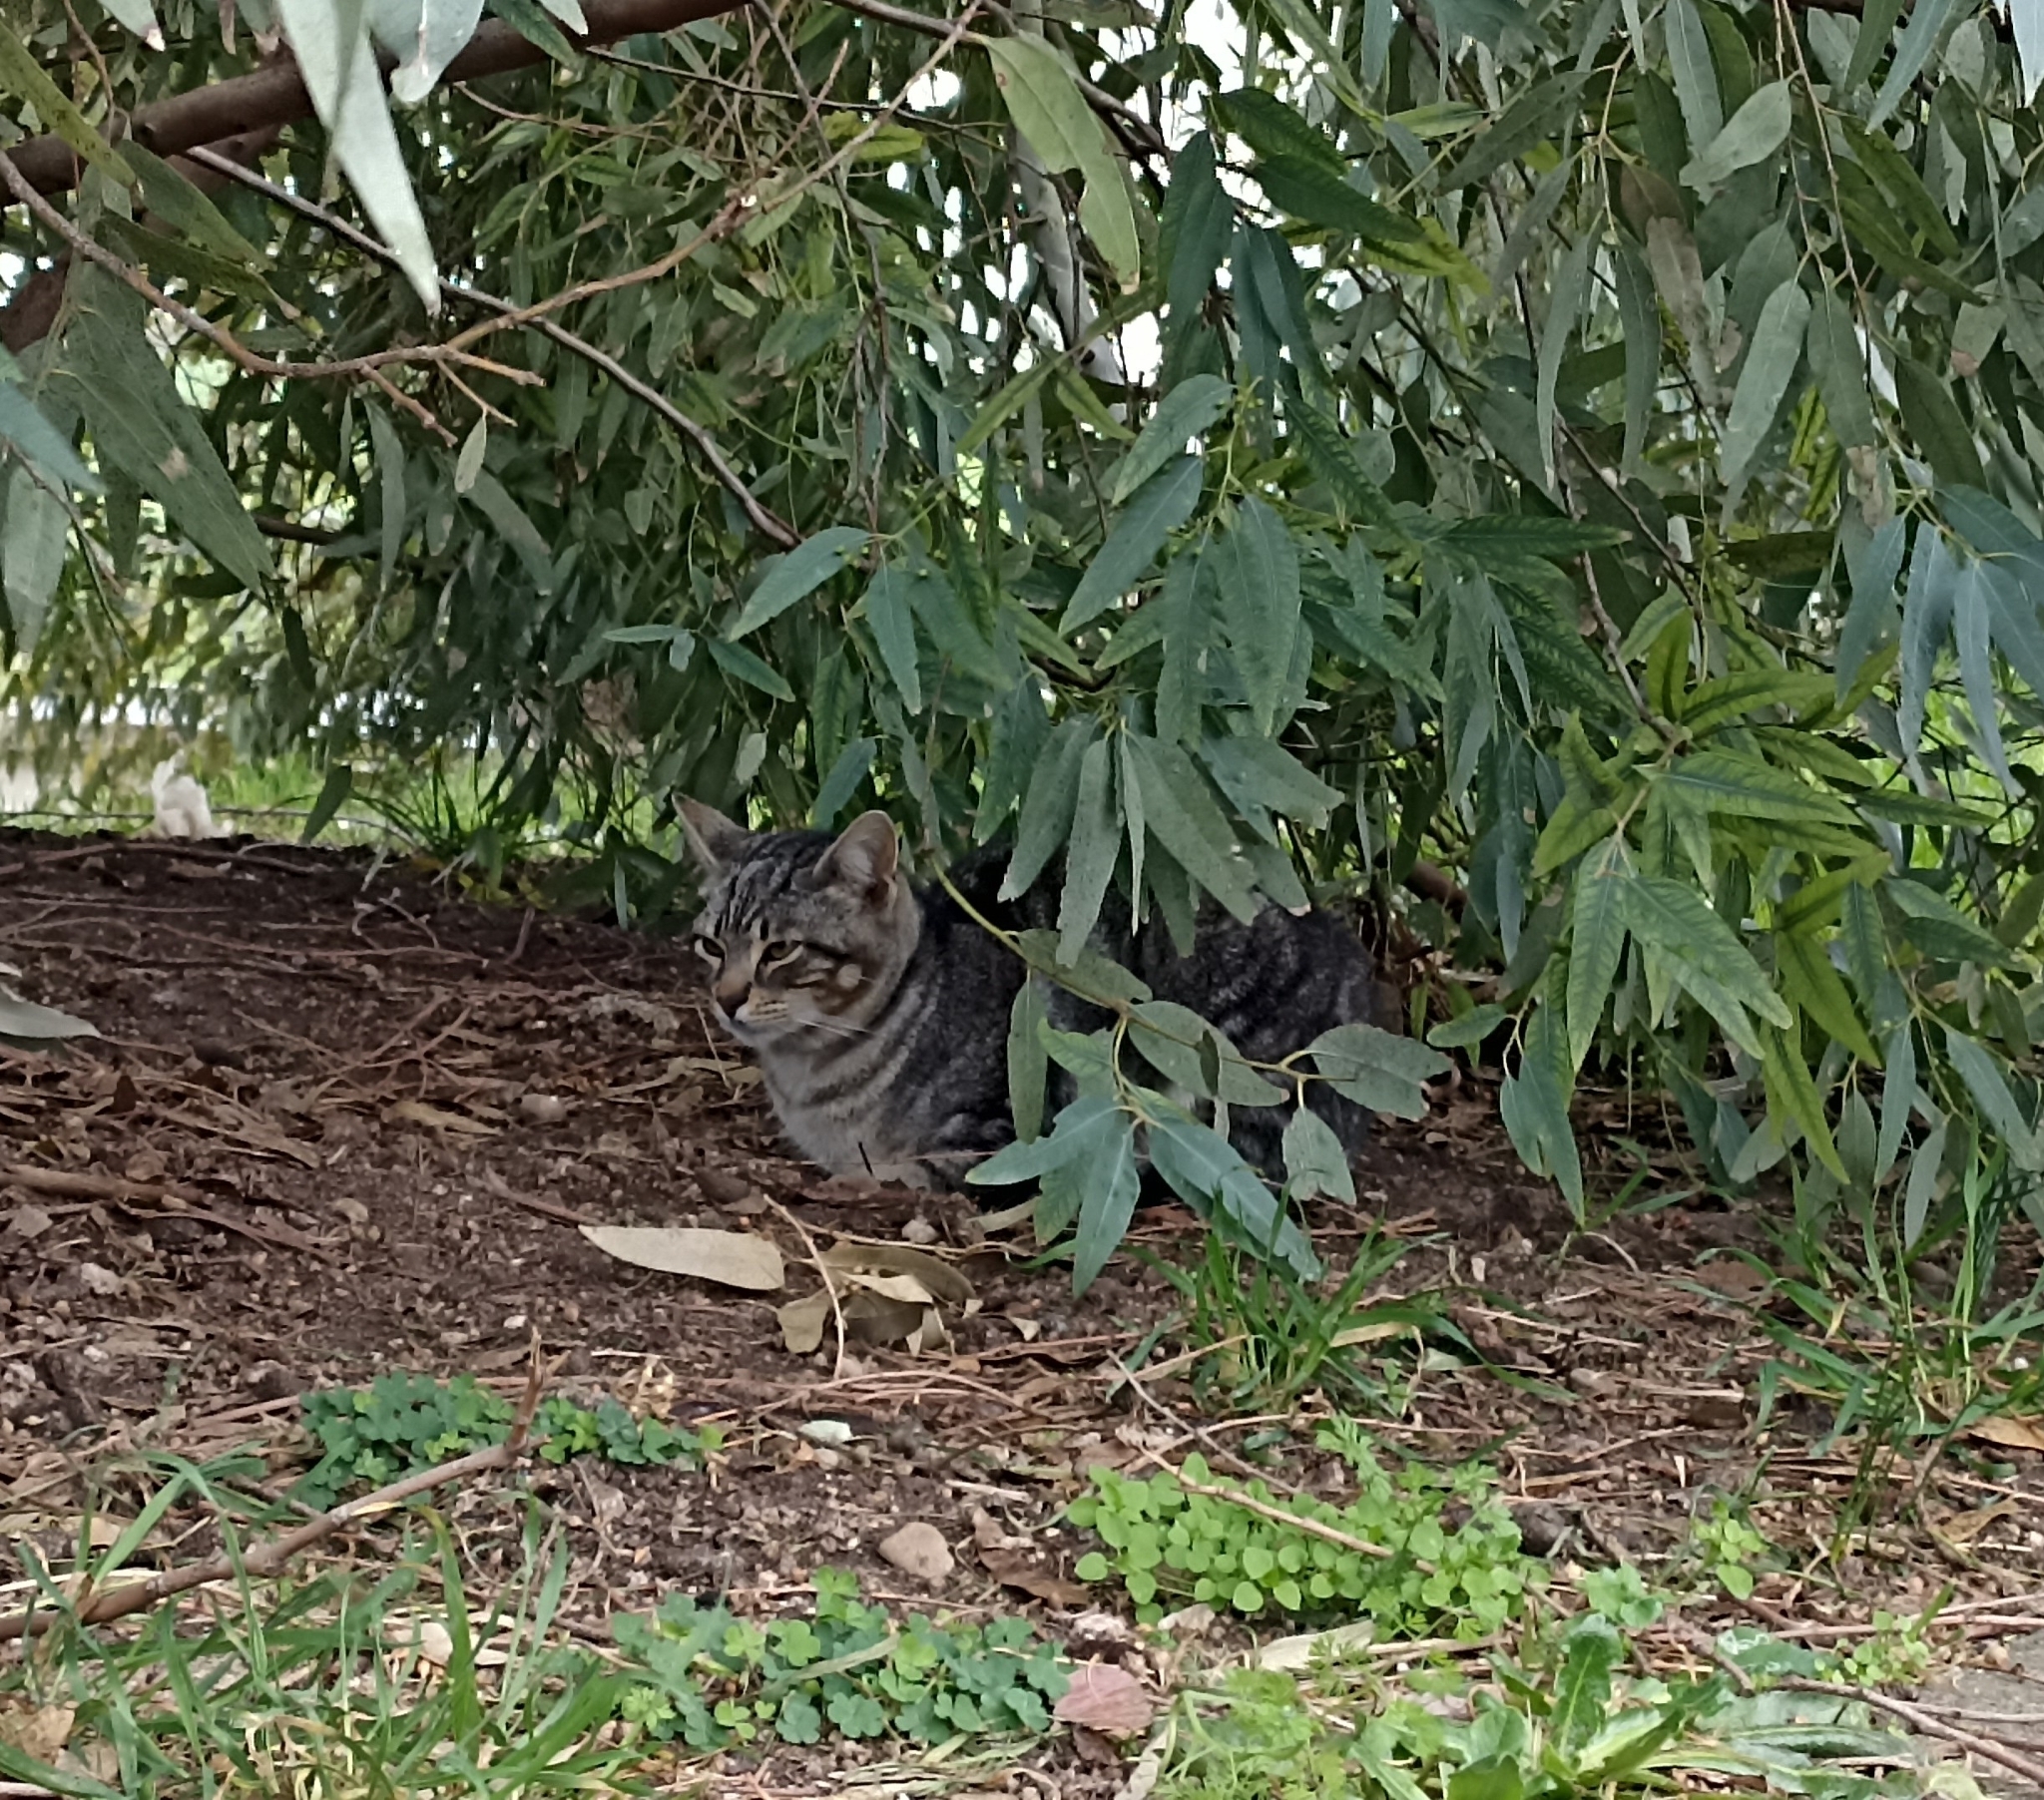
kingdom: Animalia
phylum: Chordata
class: Mammalia
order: Carnivora
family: Felidae
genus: Felis
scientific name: Felis catus
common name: Domestic cat
